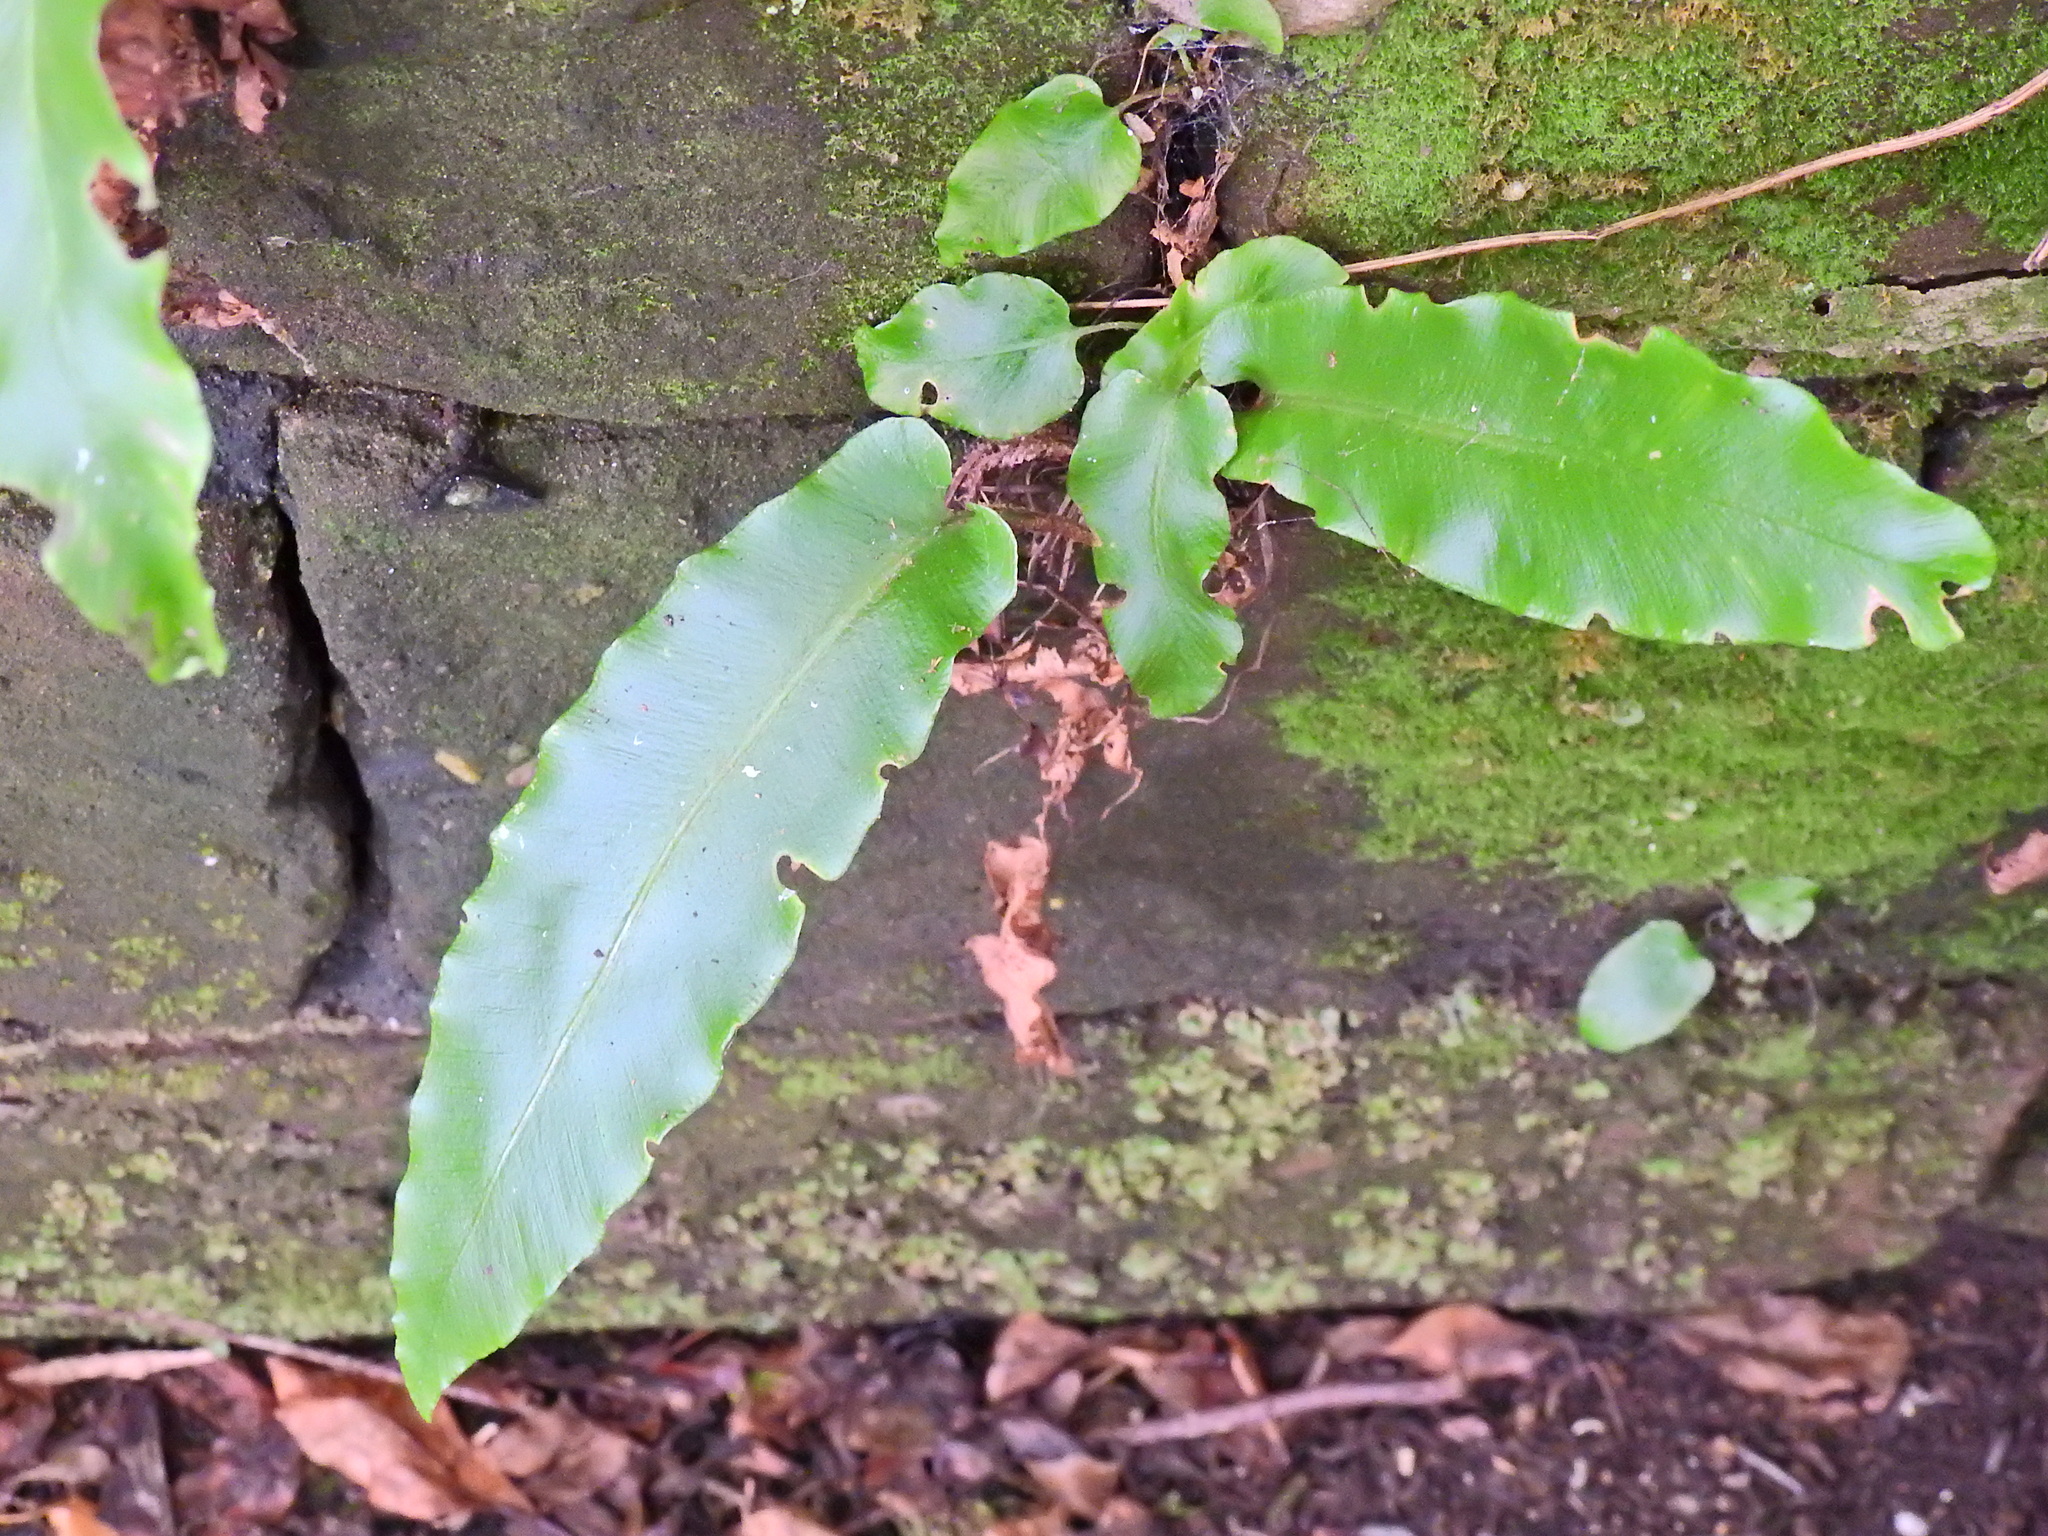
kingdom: Plantae
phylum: Tracheophyta
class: Polypodiopsida
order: Polypodiales
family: Aspleniaceae
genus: Asplenium
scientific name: Asplenium scolopendrium
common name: Hart's-tongue fern
